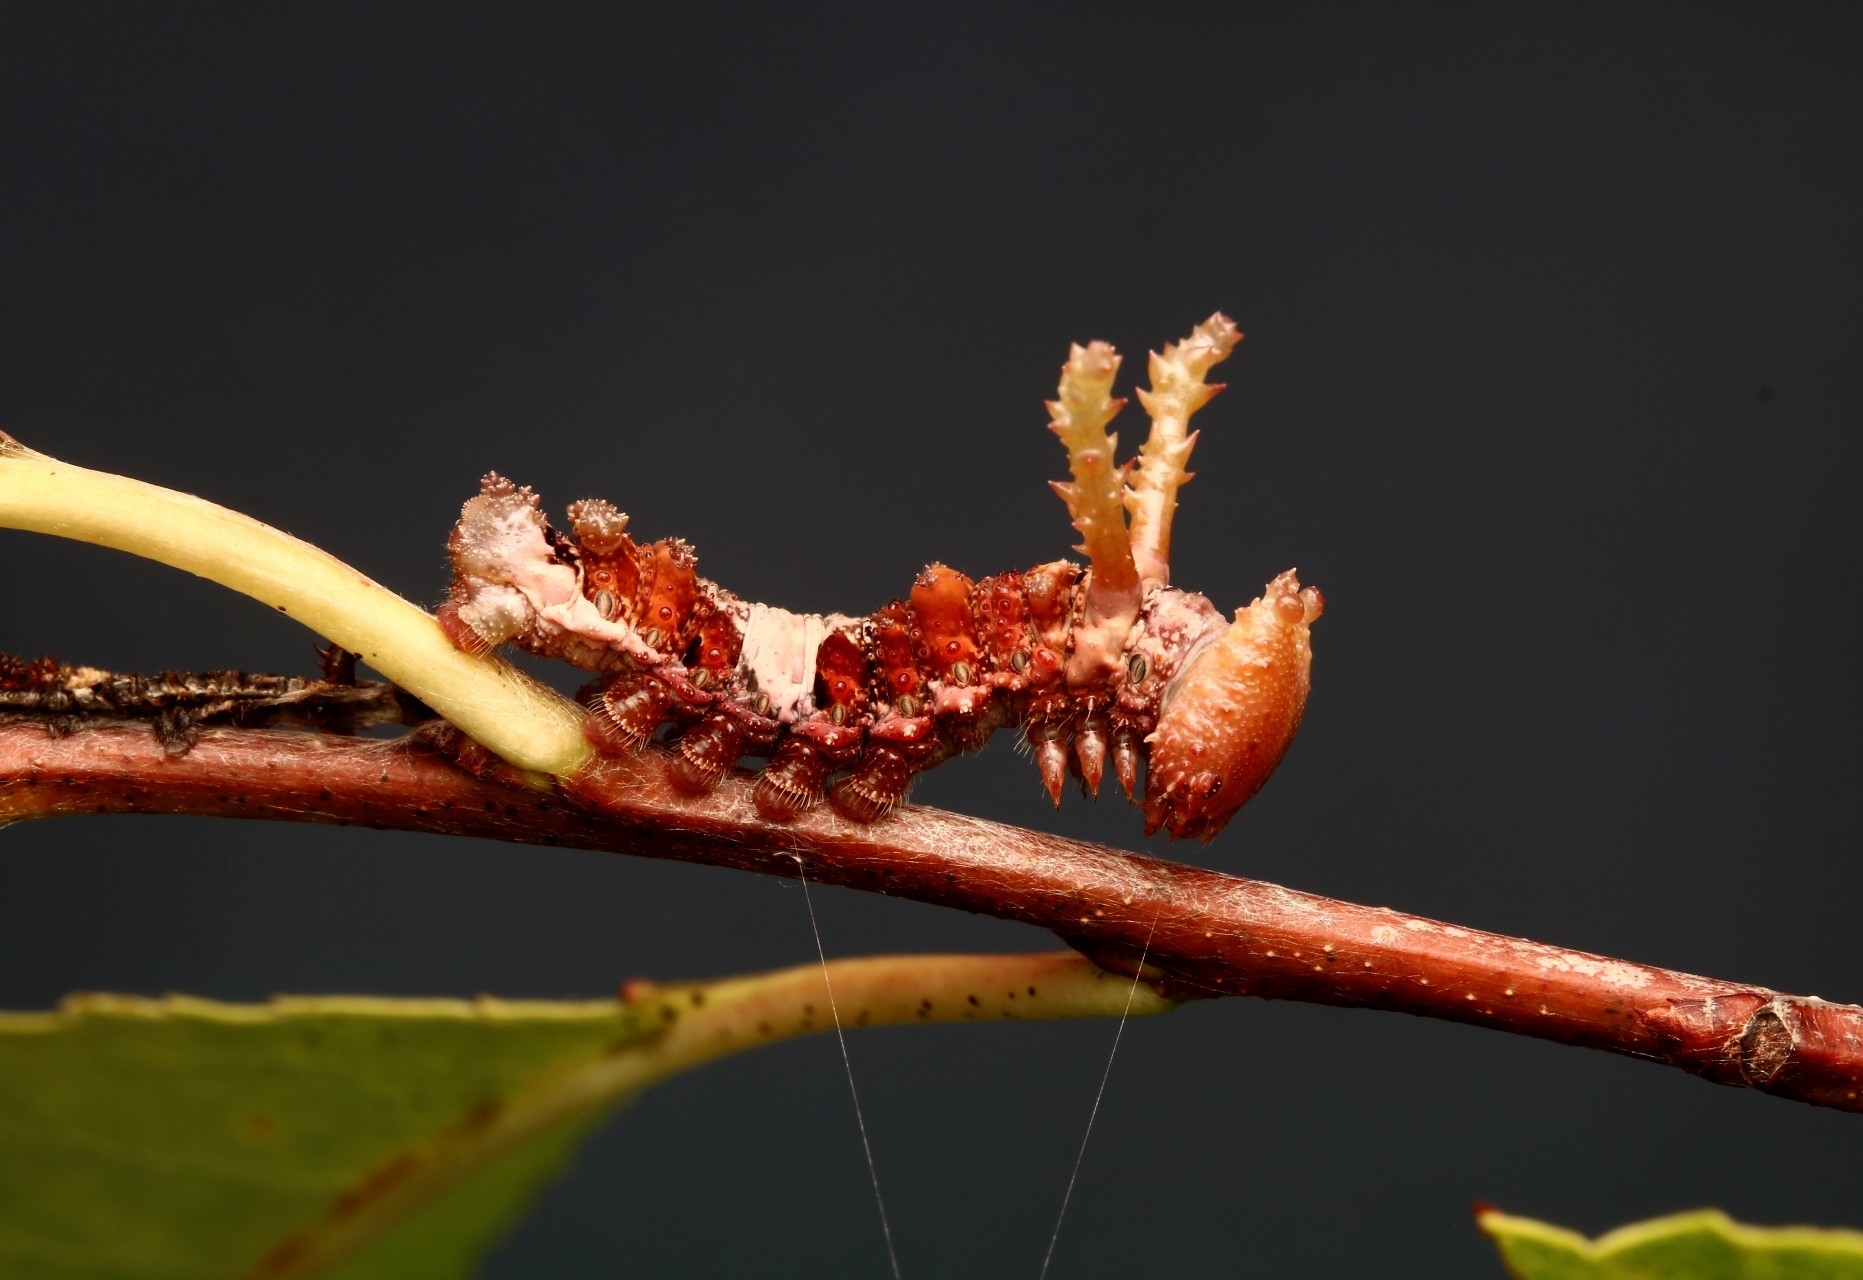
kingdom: Animalia
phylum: Arthropoda
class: Insecta
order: Lepidoptera
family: Nymphalidae
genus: Limenitis
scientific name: Limenitis archippus
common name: Viceroy
